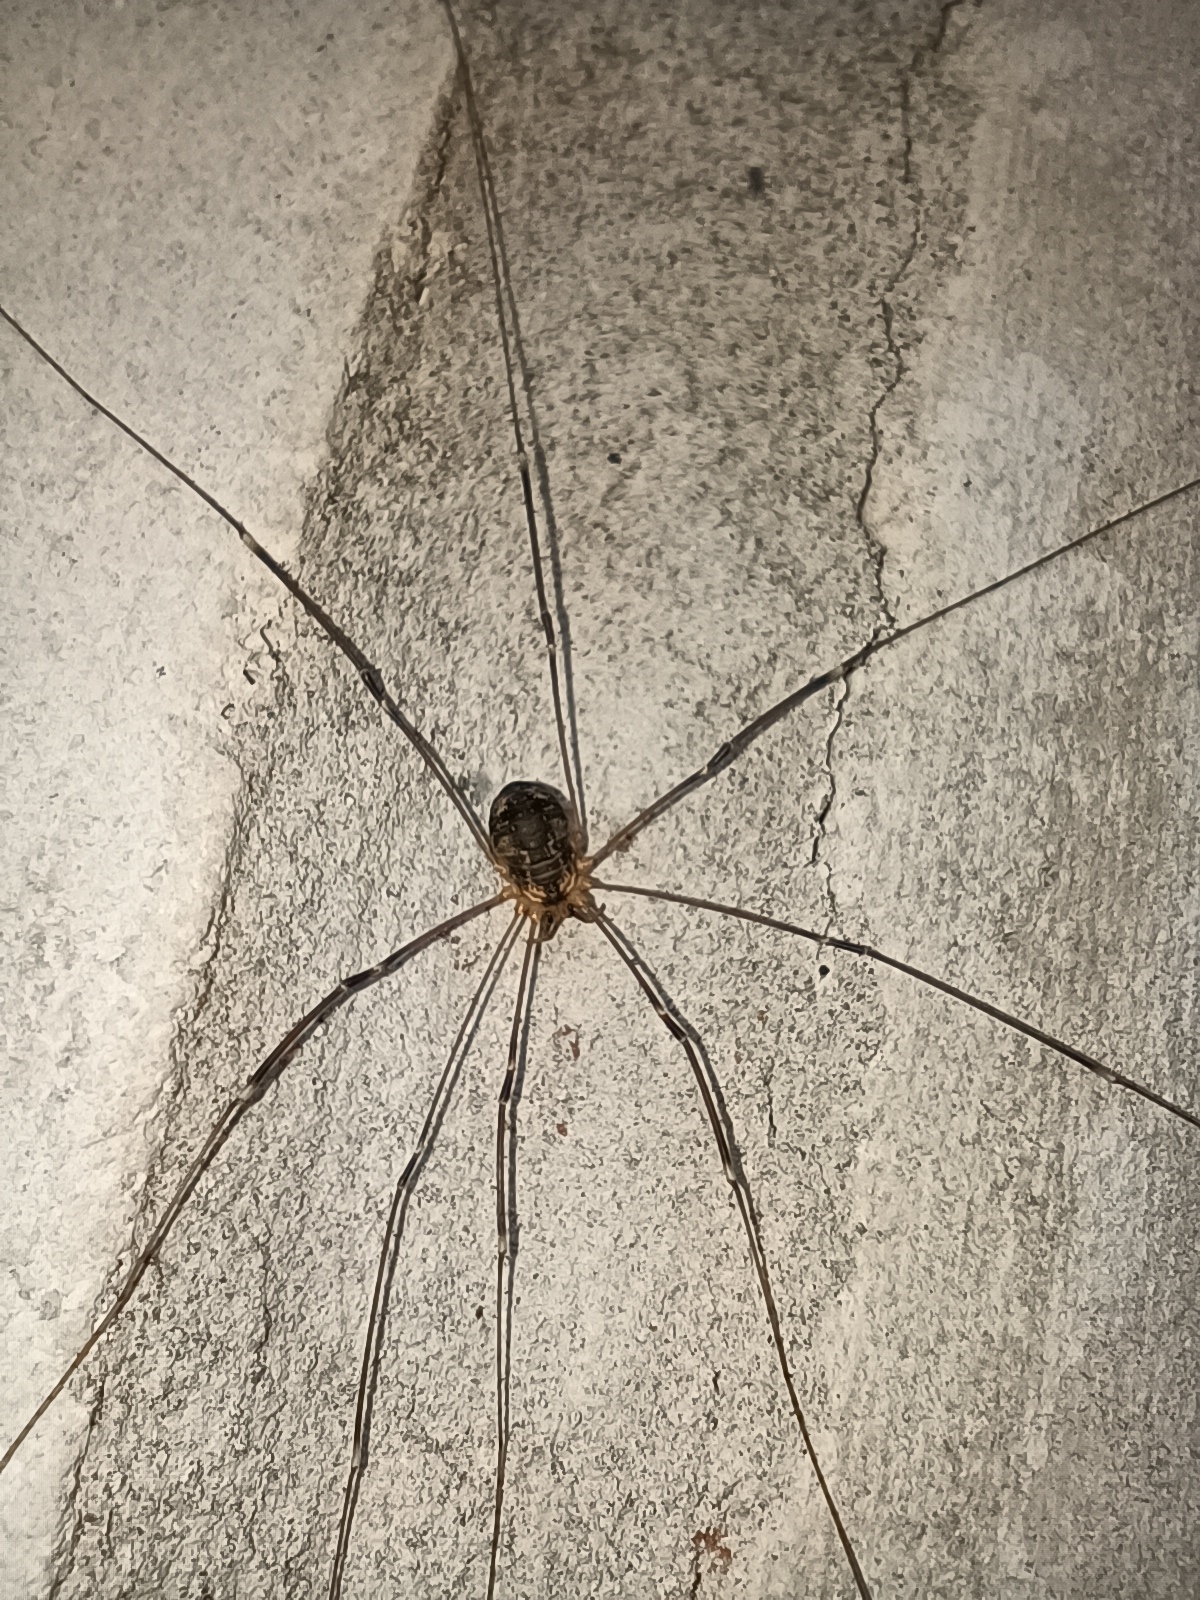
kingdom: Animalia
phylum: Arthropoda
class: Arachnida
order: Opiliones
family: Sclerosomatidae
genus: Leiobunum
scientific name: Leiobunum gracile
